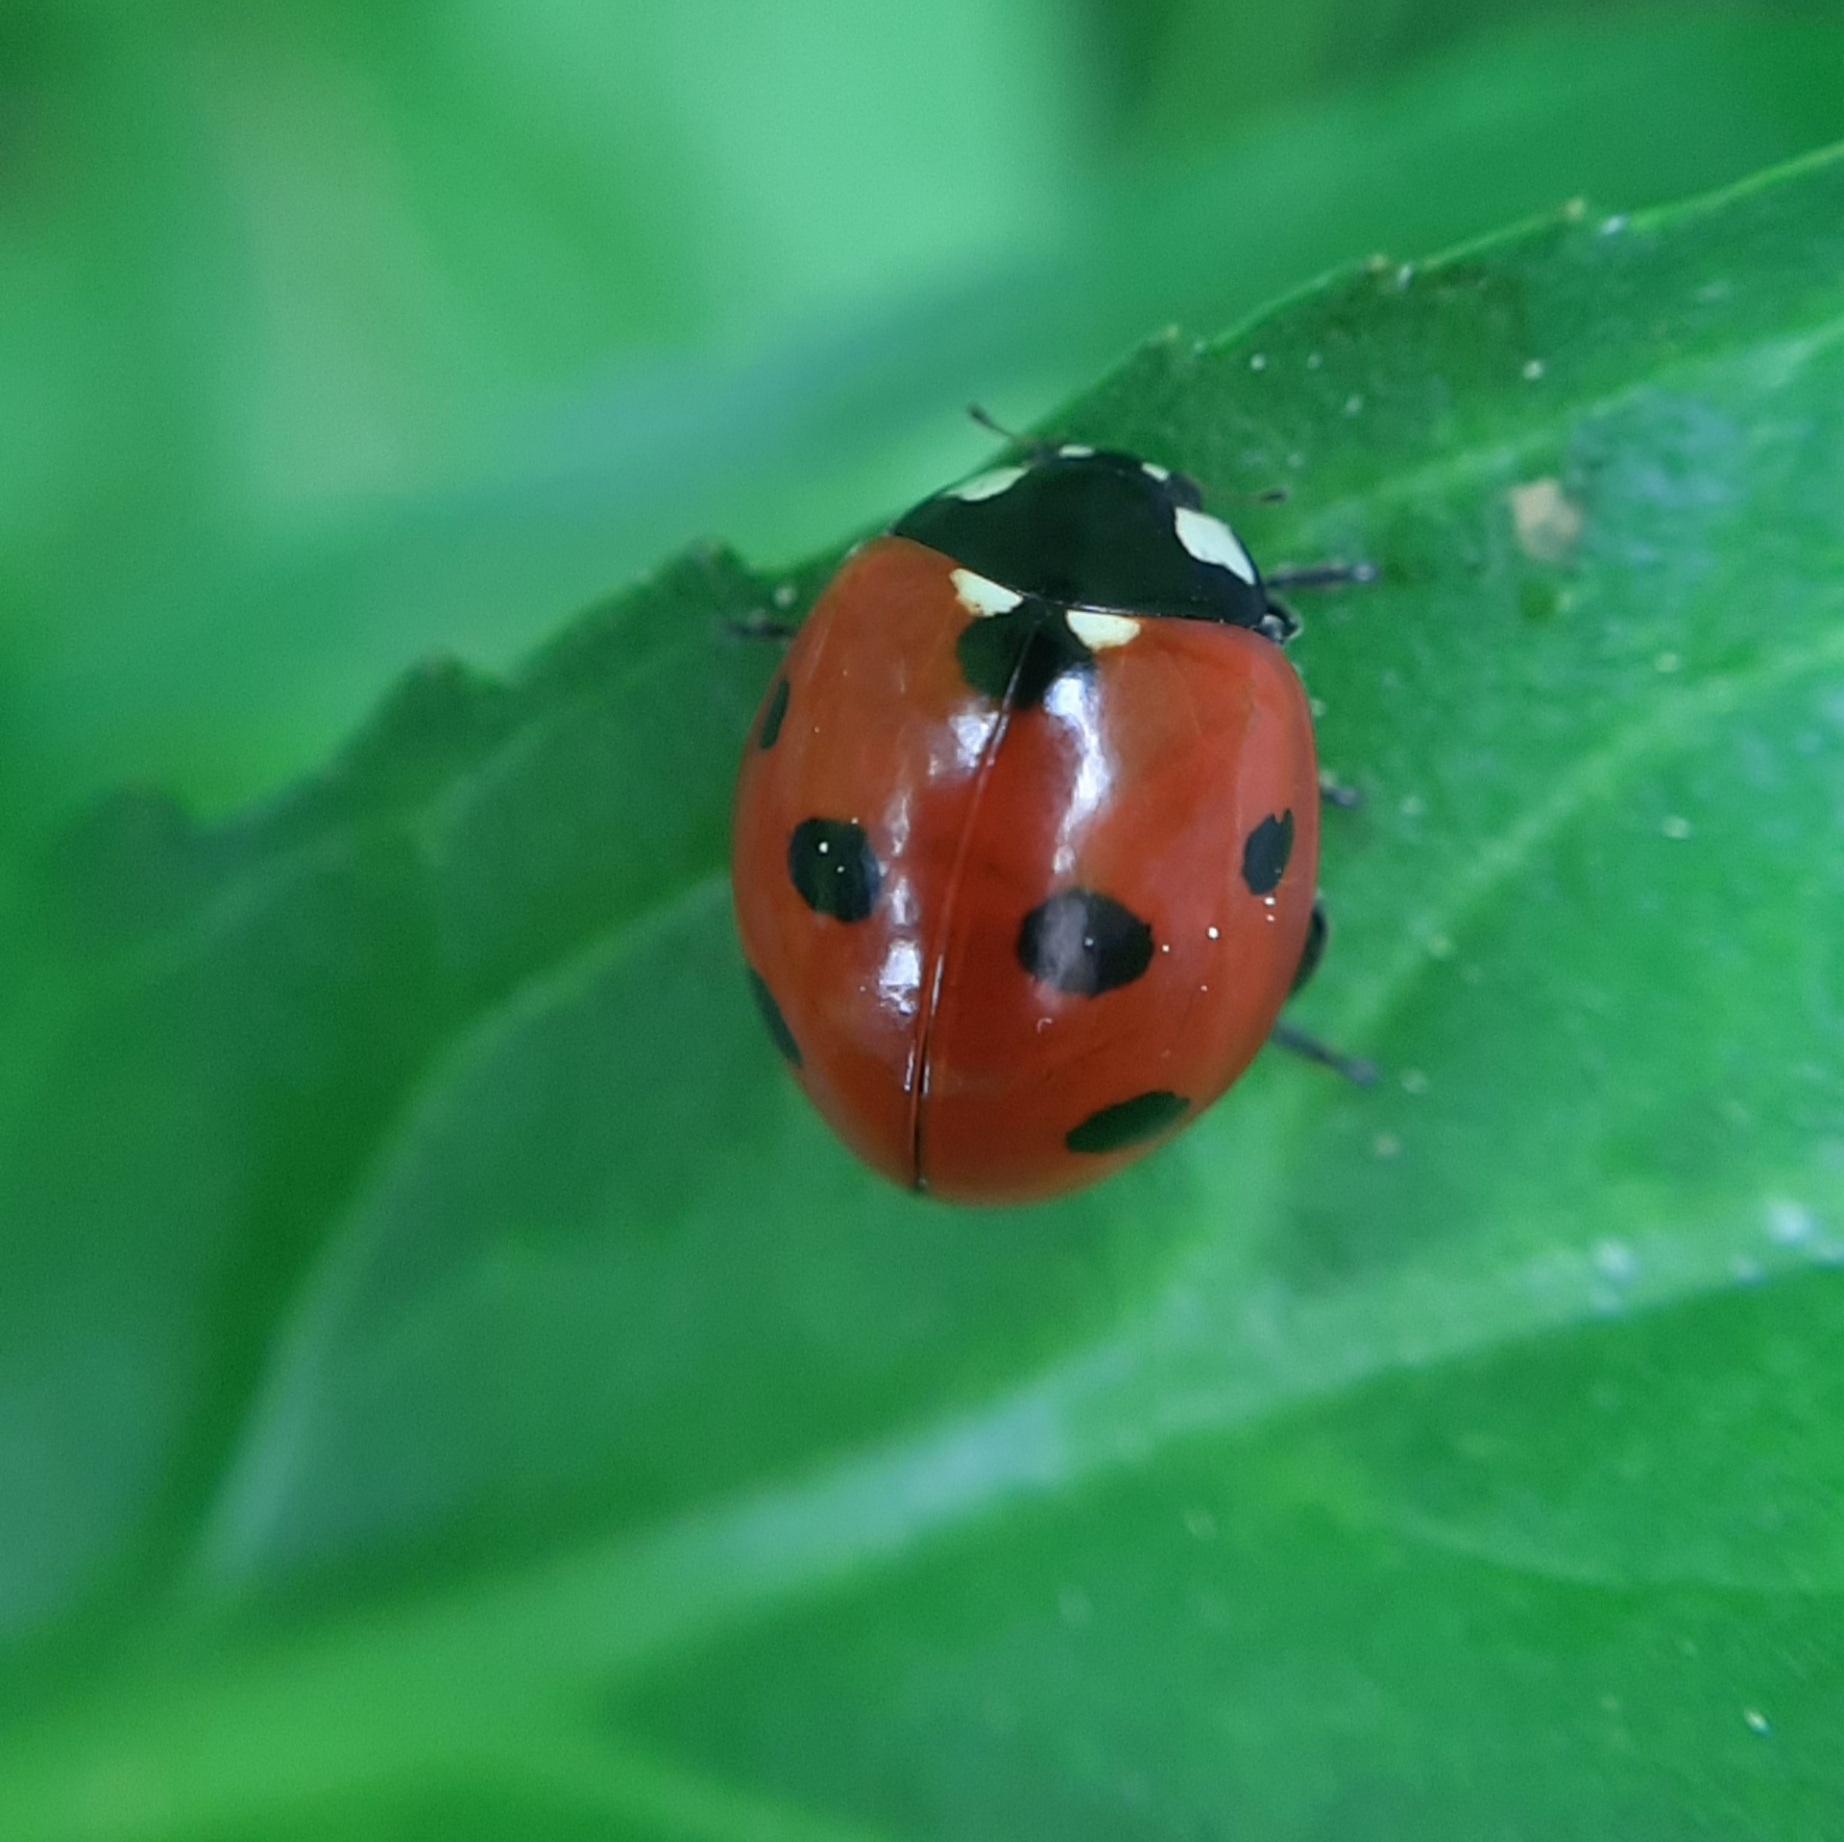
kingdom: Animalia
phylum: Arthropoda
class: Insecta
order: Coleoptera
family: Coccinellidae
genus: Coccinella
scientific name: Coccinella septempunctata
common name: Sevenspotted lady beetle
